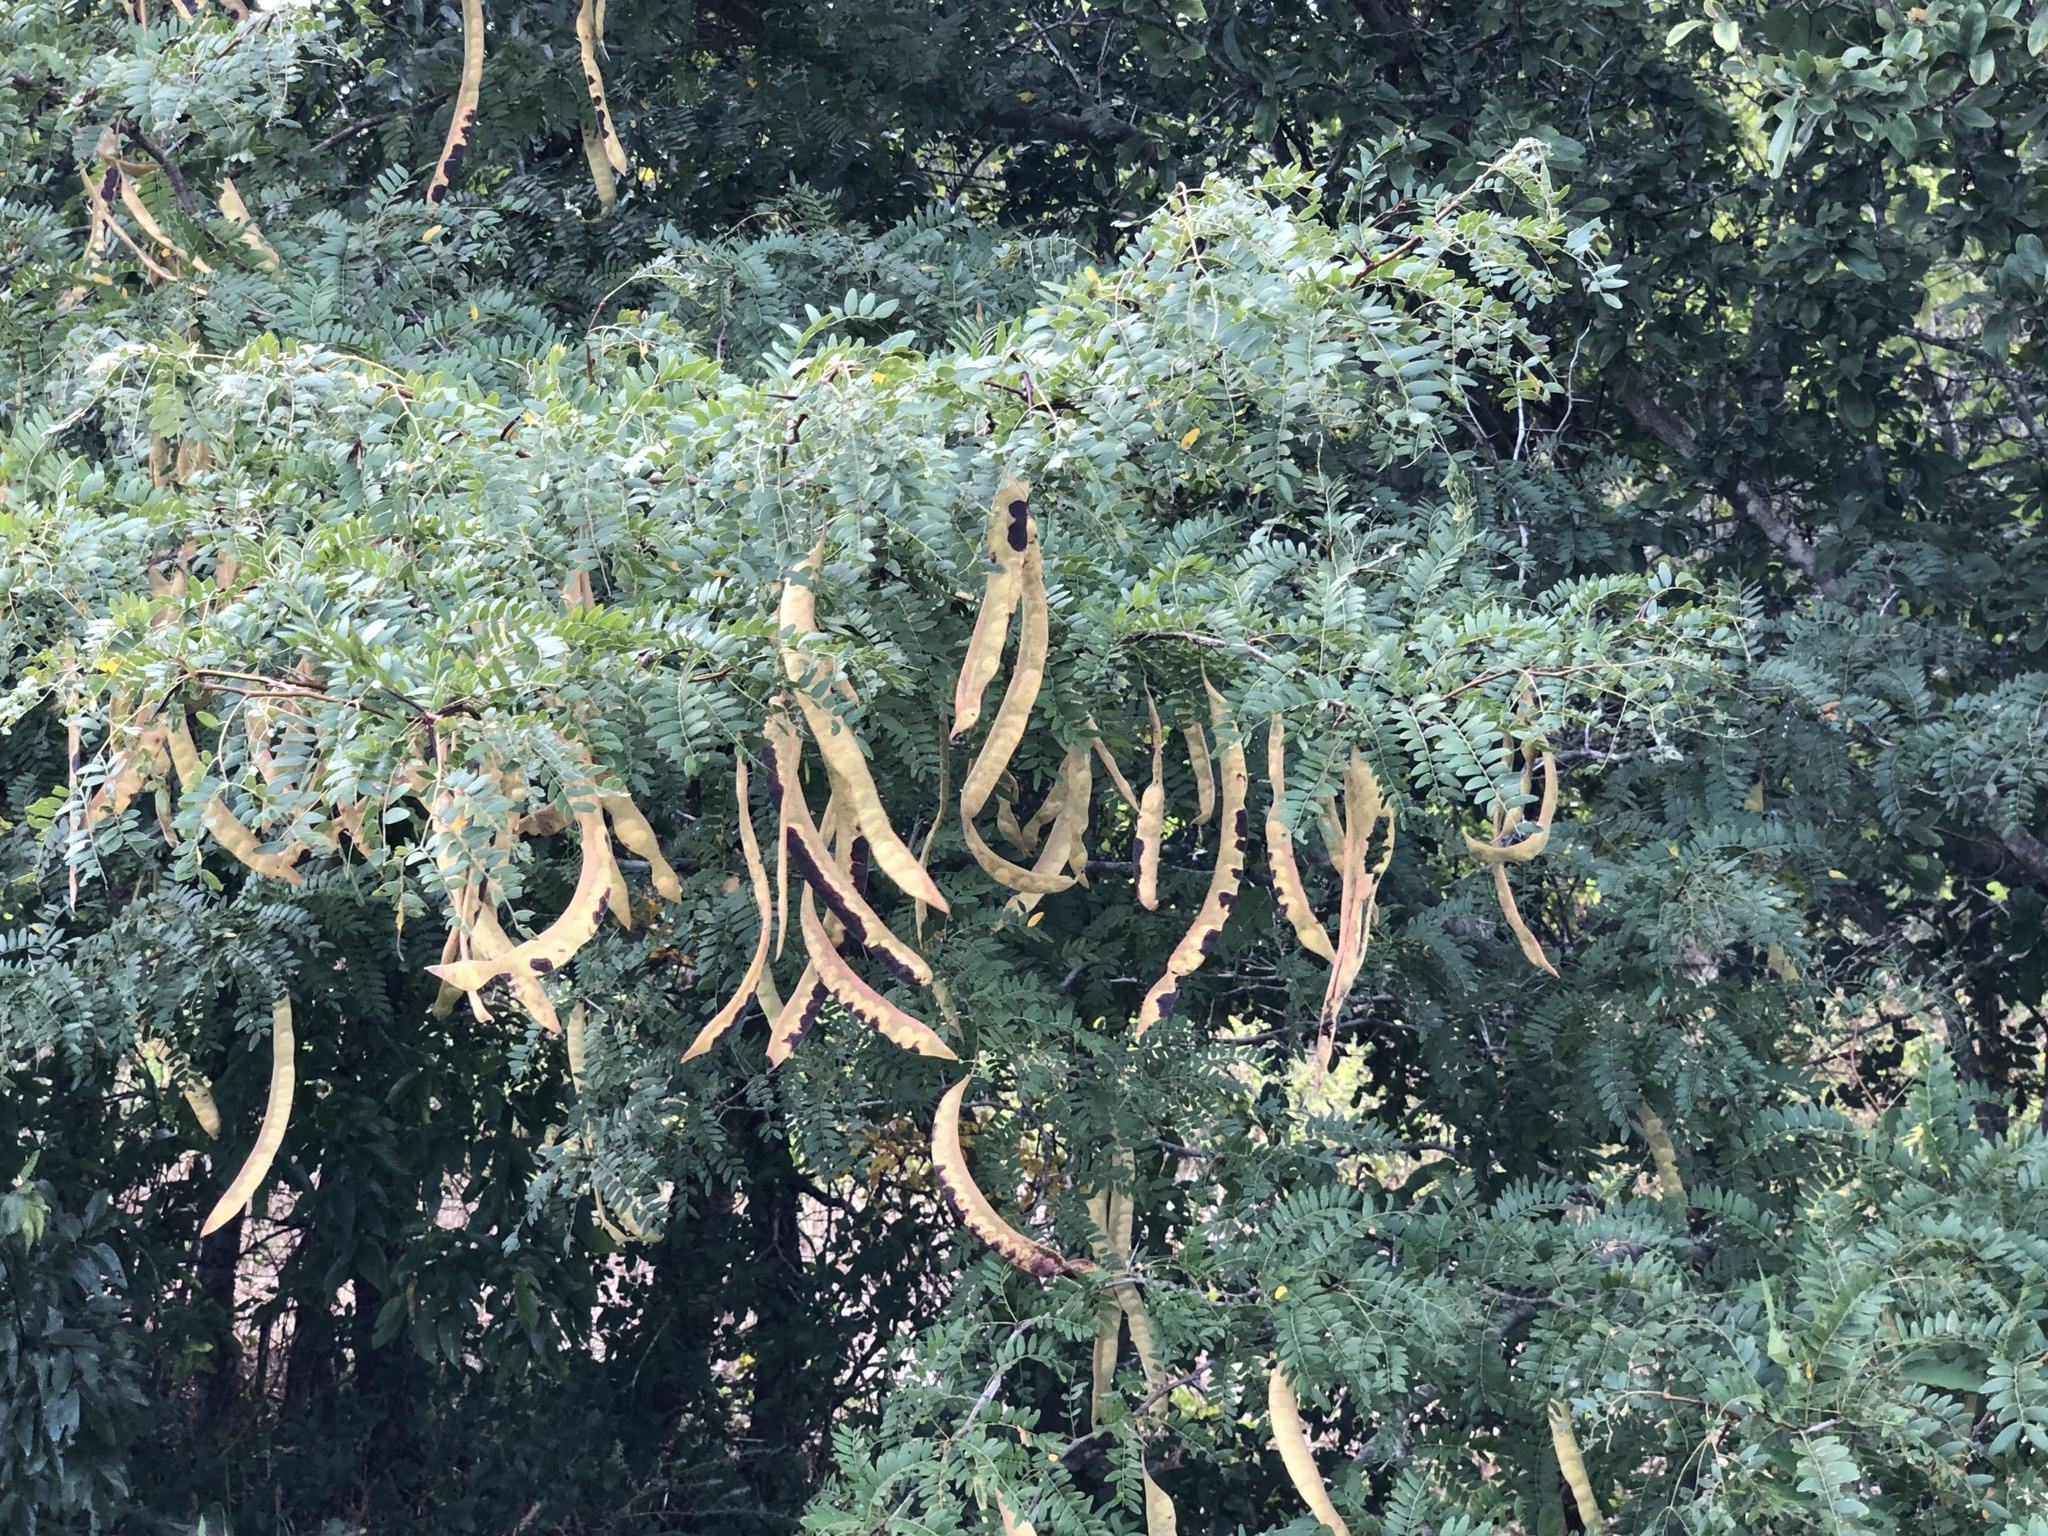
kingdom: Plantae
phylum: Tracheophyta
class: Magnoliopsida
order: Fabales
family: Fabaceae
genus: Gleditsia
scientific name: Gleditsia triacanthos
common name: Common honeylocust
